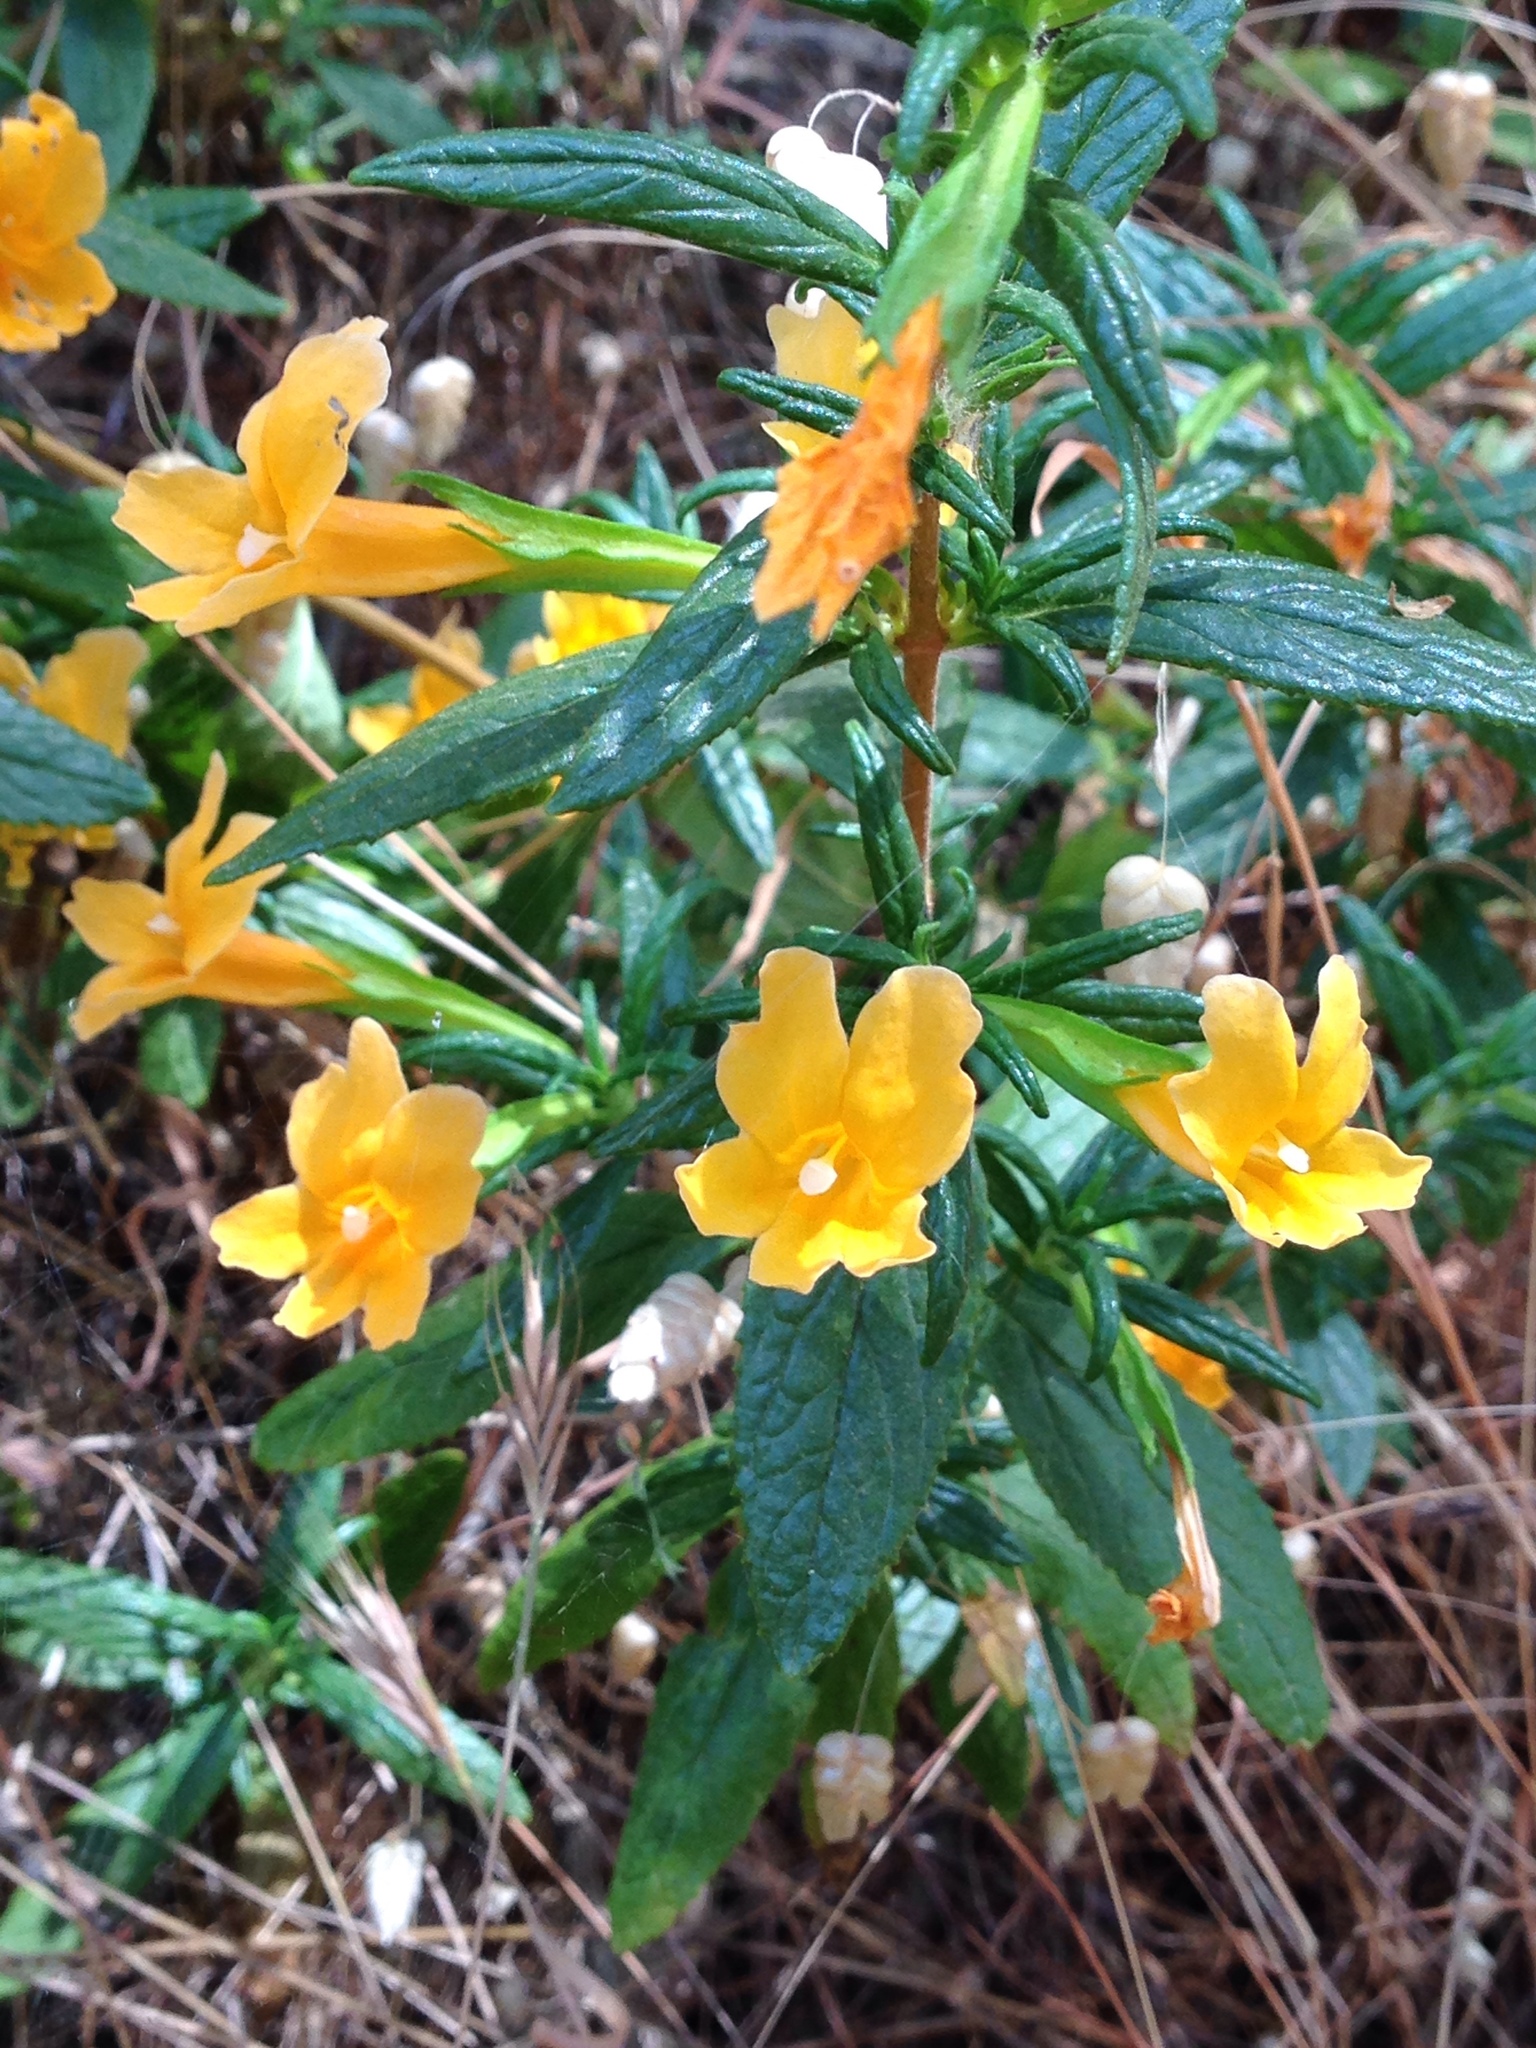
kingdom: Plantae
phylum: Tracheophyta
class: Magnoliopsida
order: Lamiales
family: Phrymaceae
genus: Diplacus
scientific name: Diplacus aurantiacus
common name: Bush monkey-flower
